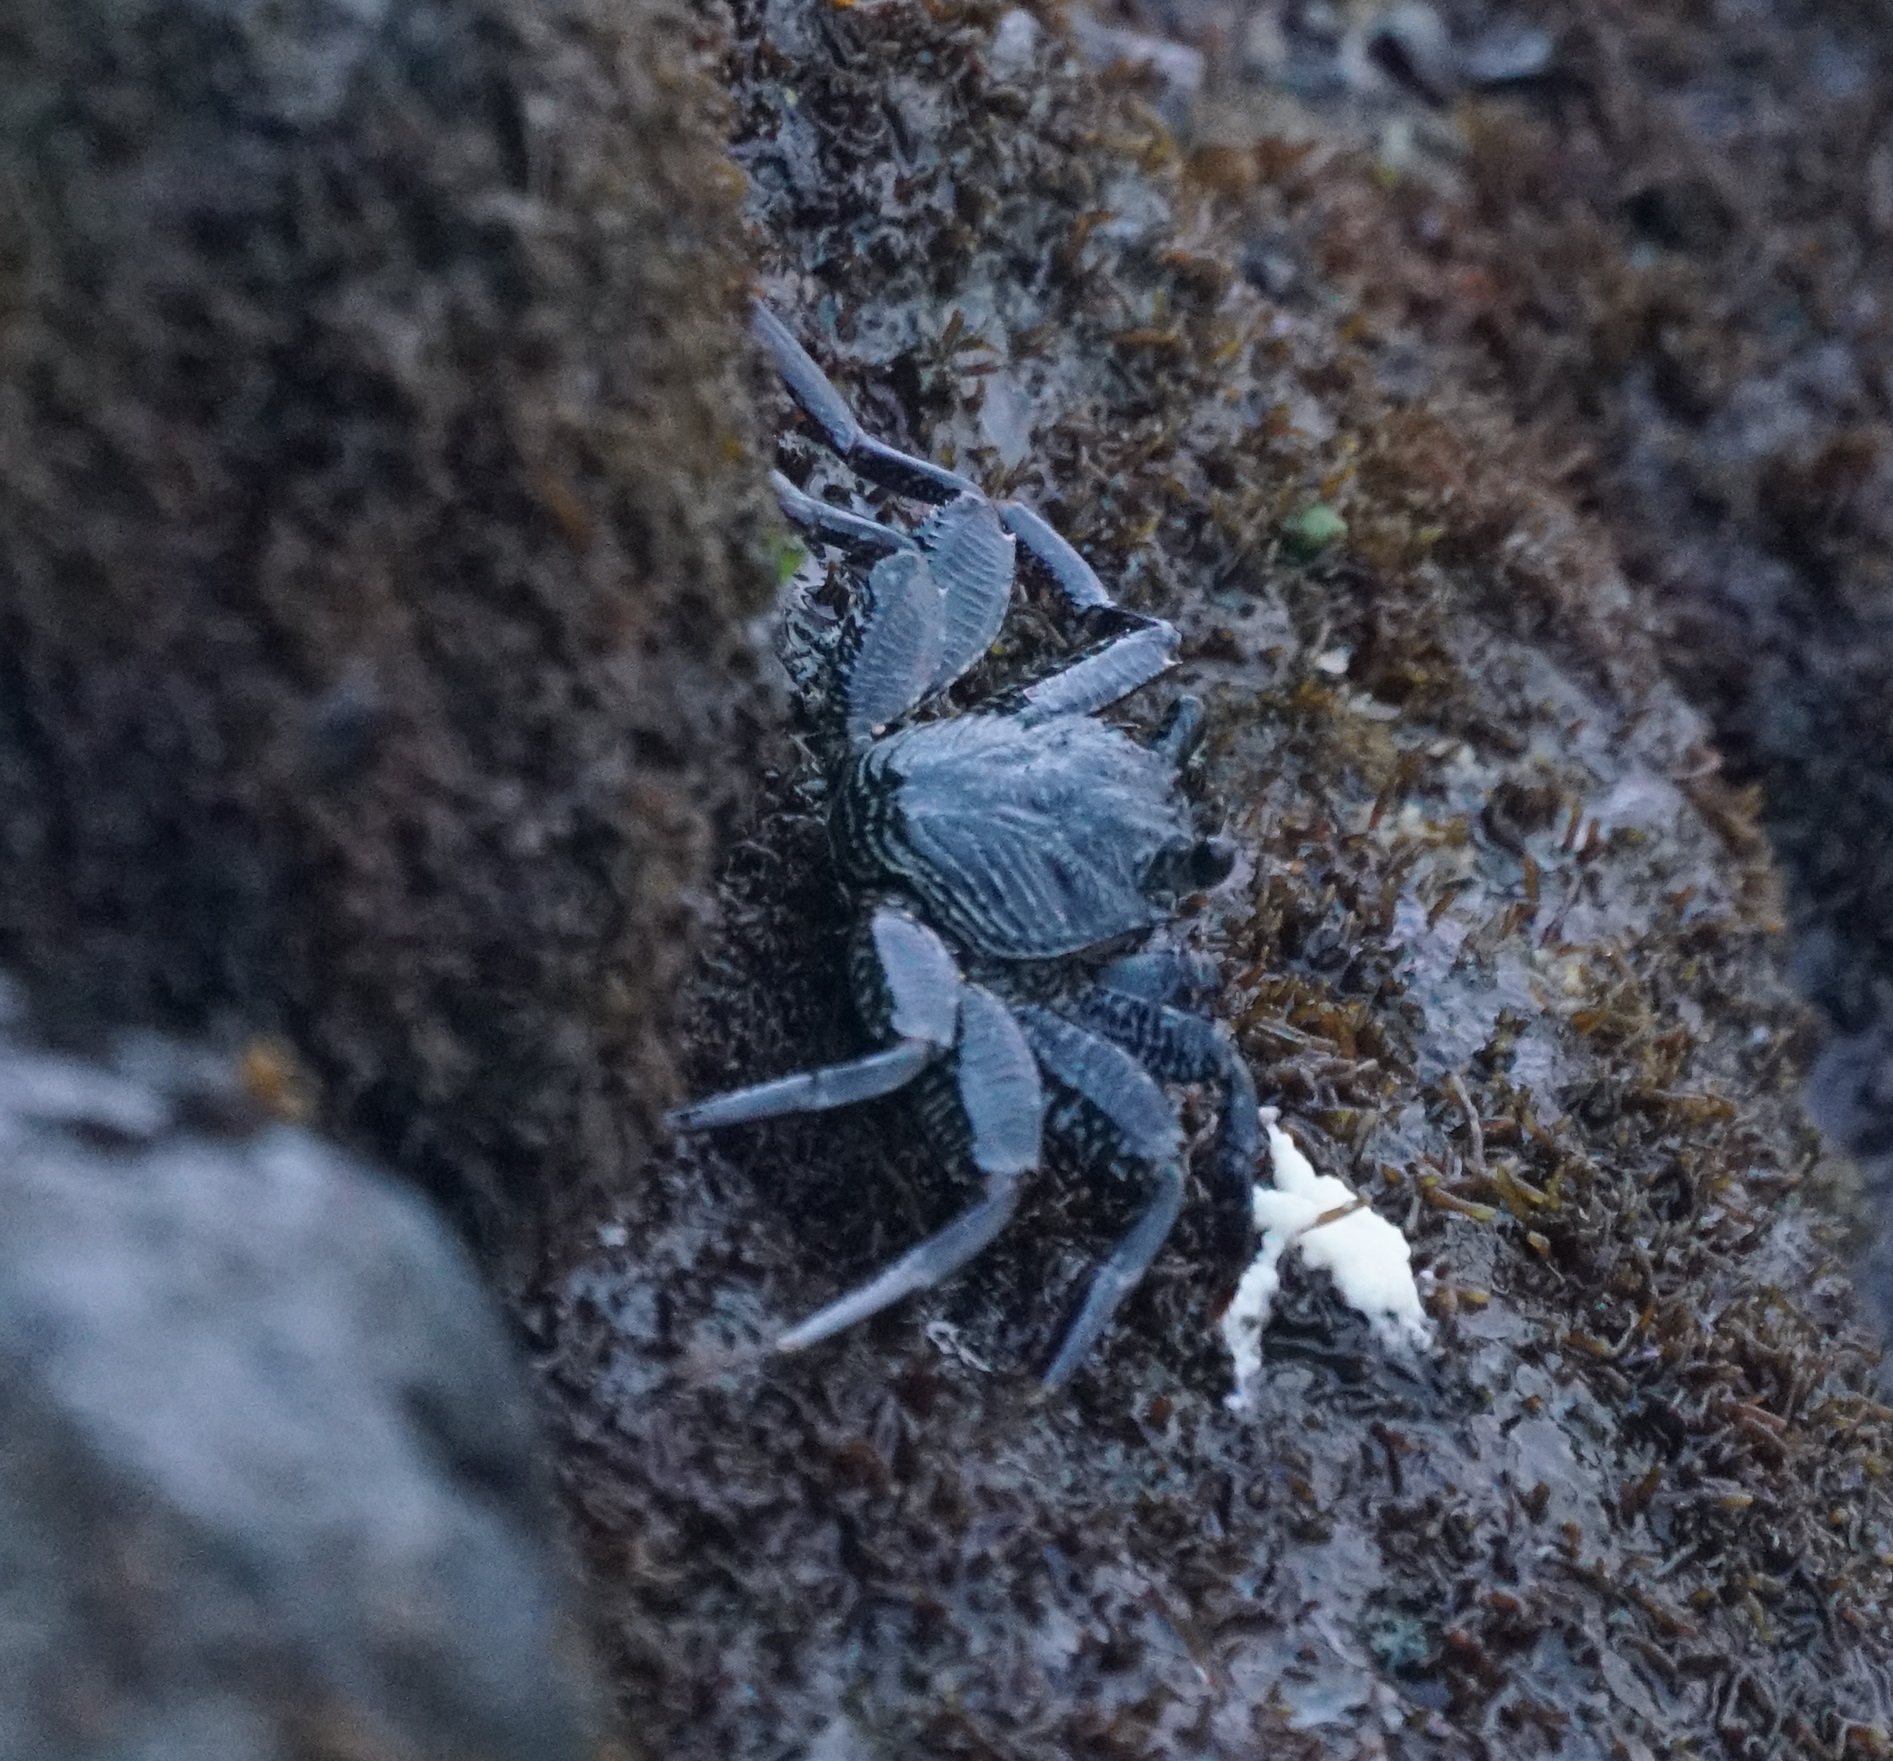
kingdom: Animalia
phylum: Arthropoda
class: Malacostraca
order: Decapoda
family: Grapsidae
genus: Grapsus
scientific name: Grapsus tenuicrustatus
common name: Natal lightfoot crab
